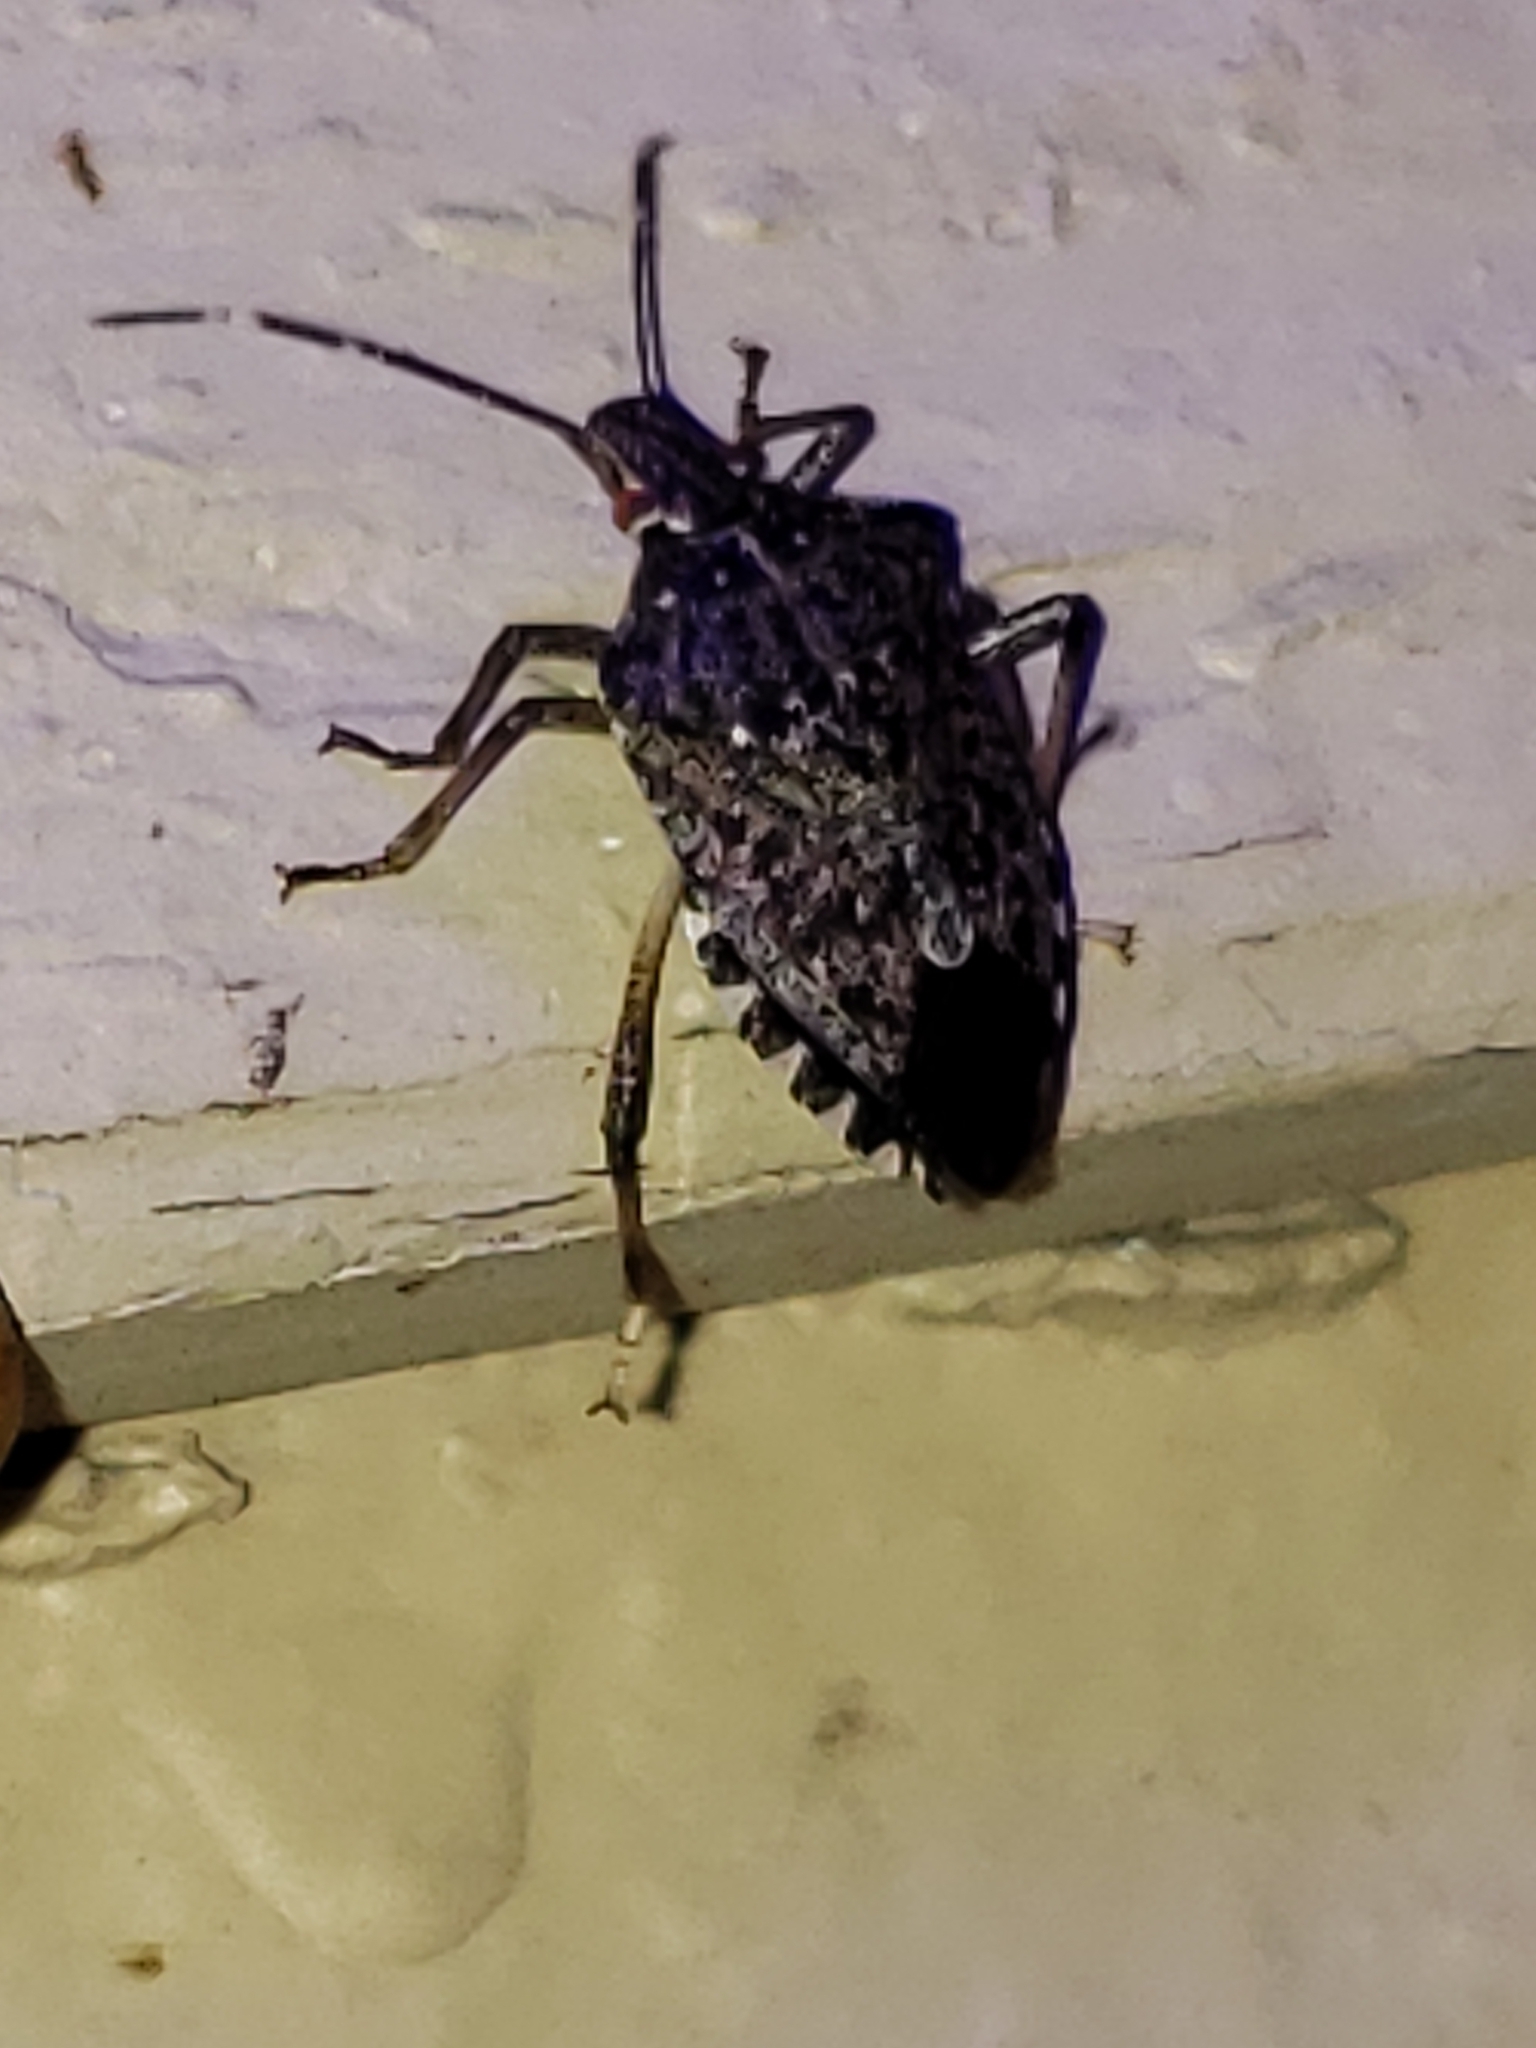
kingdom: Animalia
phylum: Arthropoda
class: Insecta
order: Hemiptera
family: Pentatomidae
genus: Halyomorpha
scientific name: Halyomorpha halys
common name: Brown marmorated stink bug
